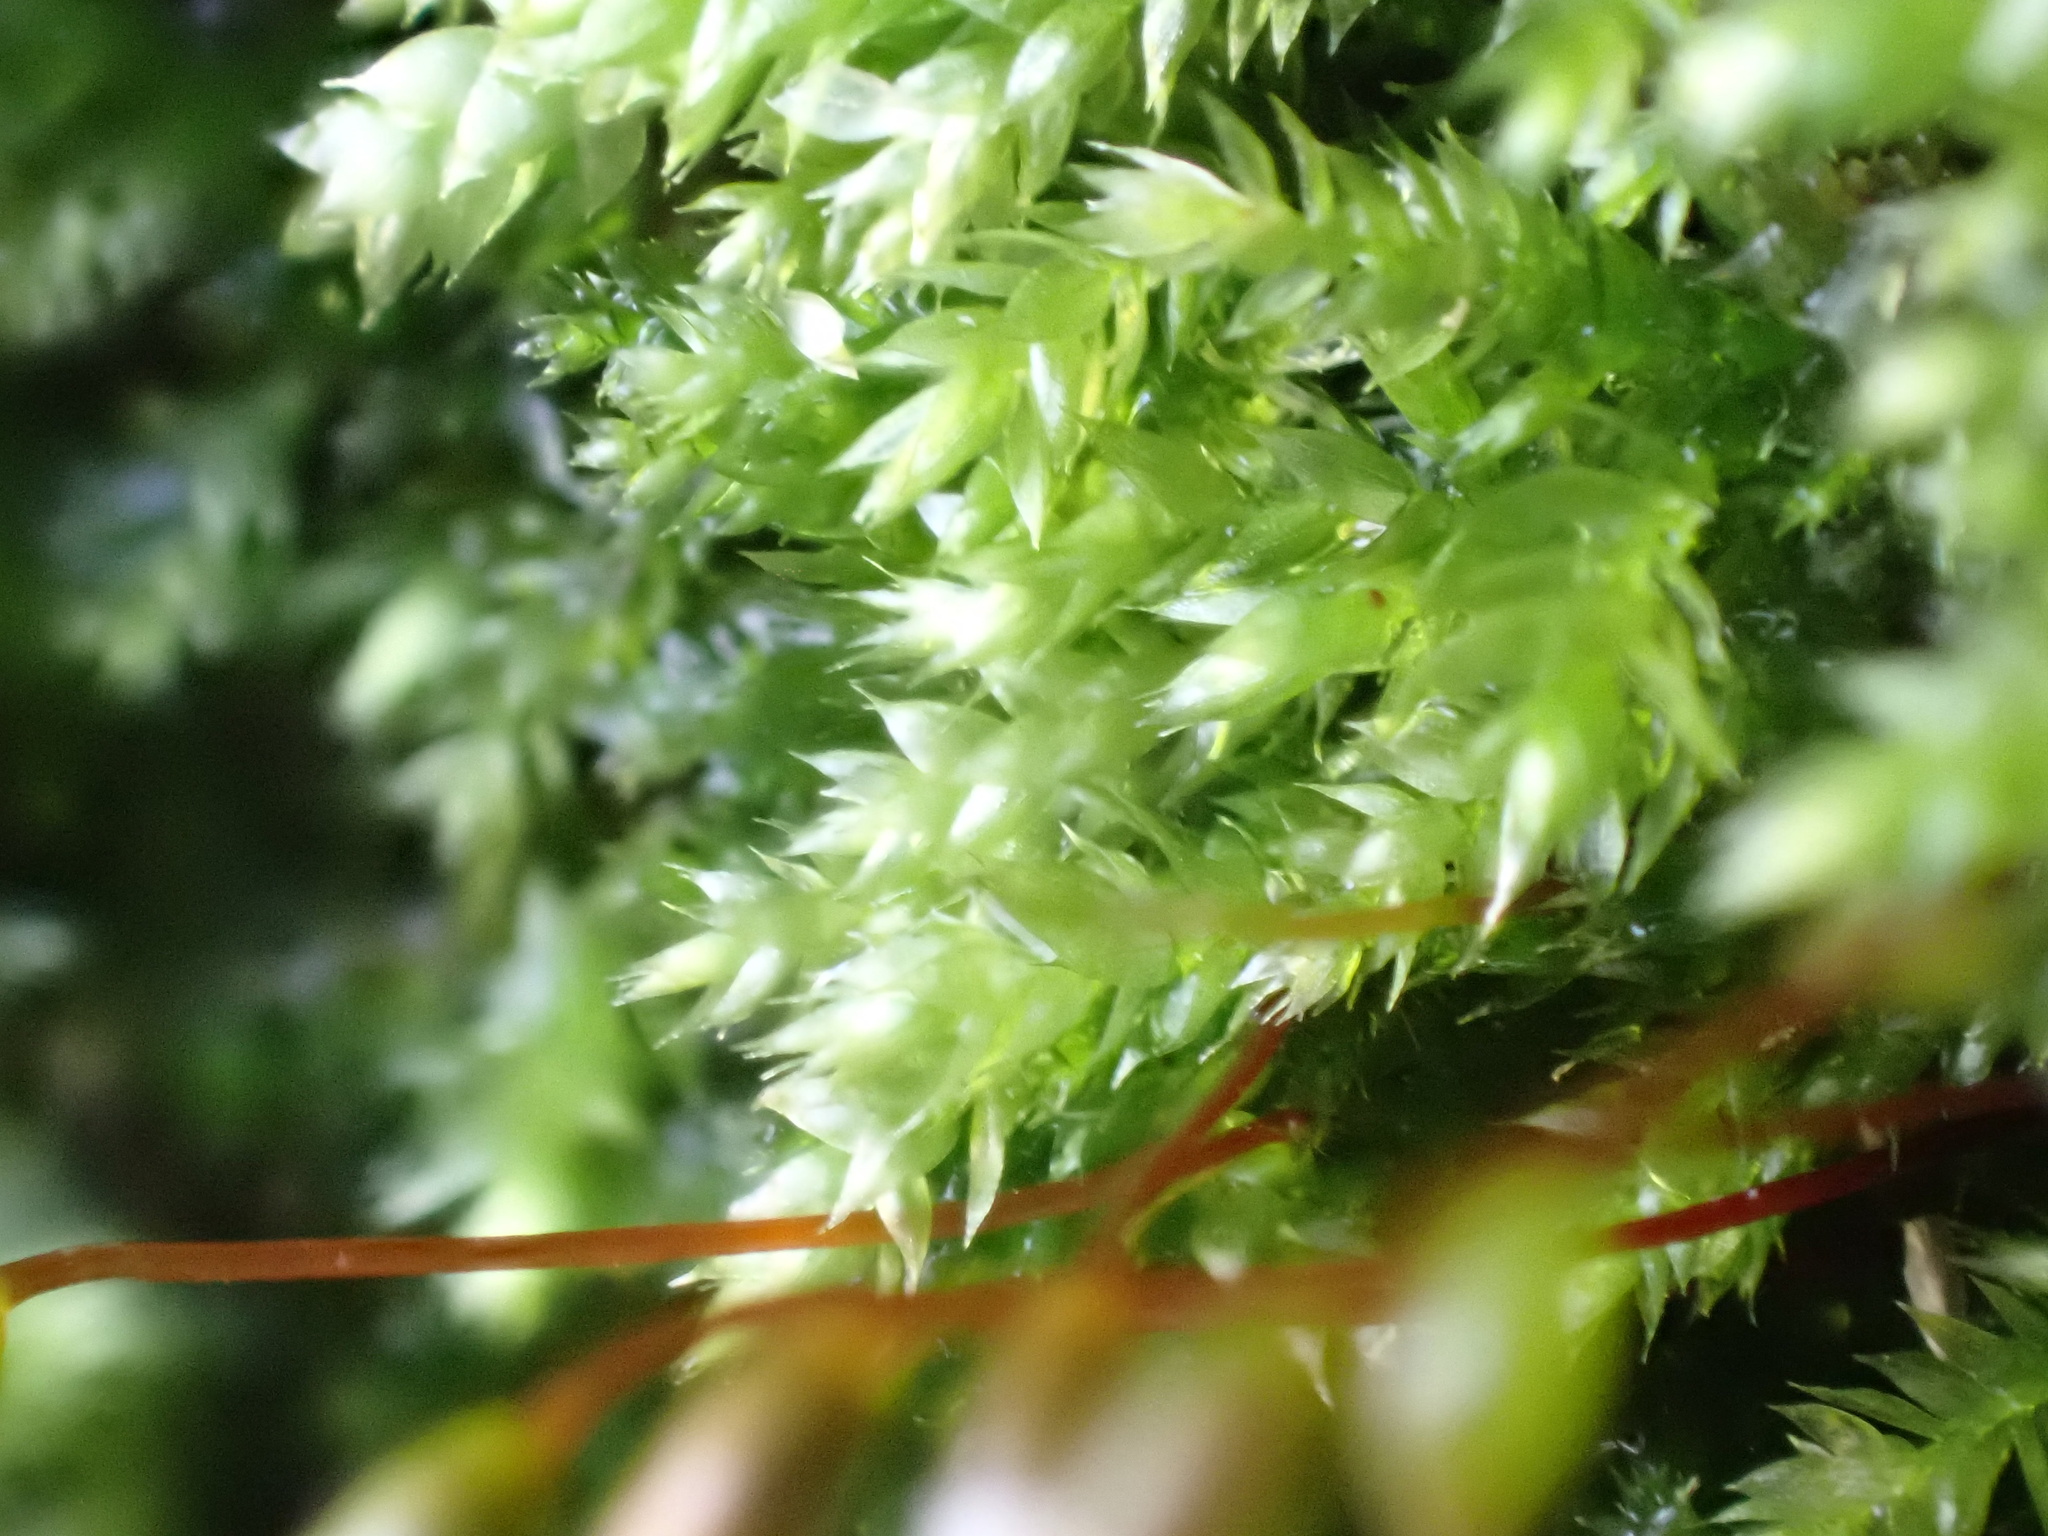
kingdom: Plantae
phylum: Bryophyta
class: Bryopsida
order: Hypnales
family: Brachytheciaceae
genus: Rhynchostegium
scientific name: Rhynchostegium confertum
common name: Clustered feather-moss
